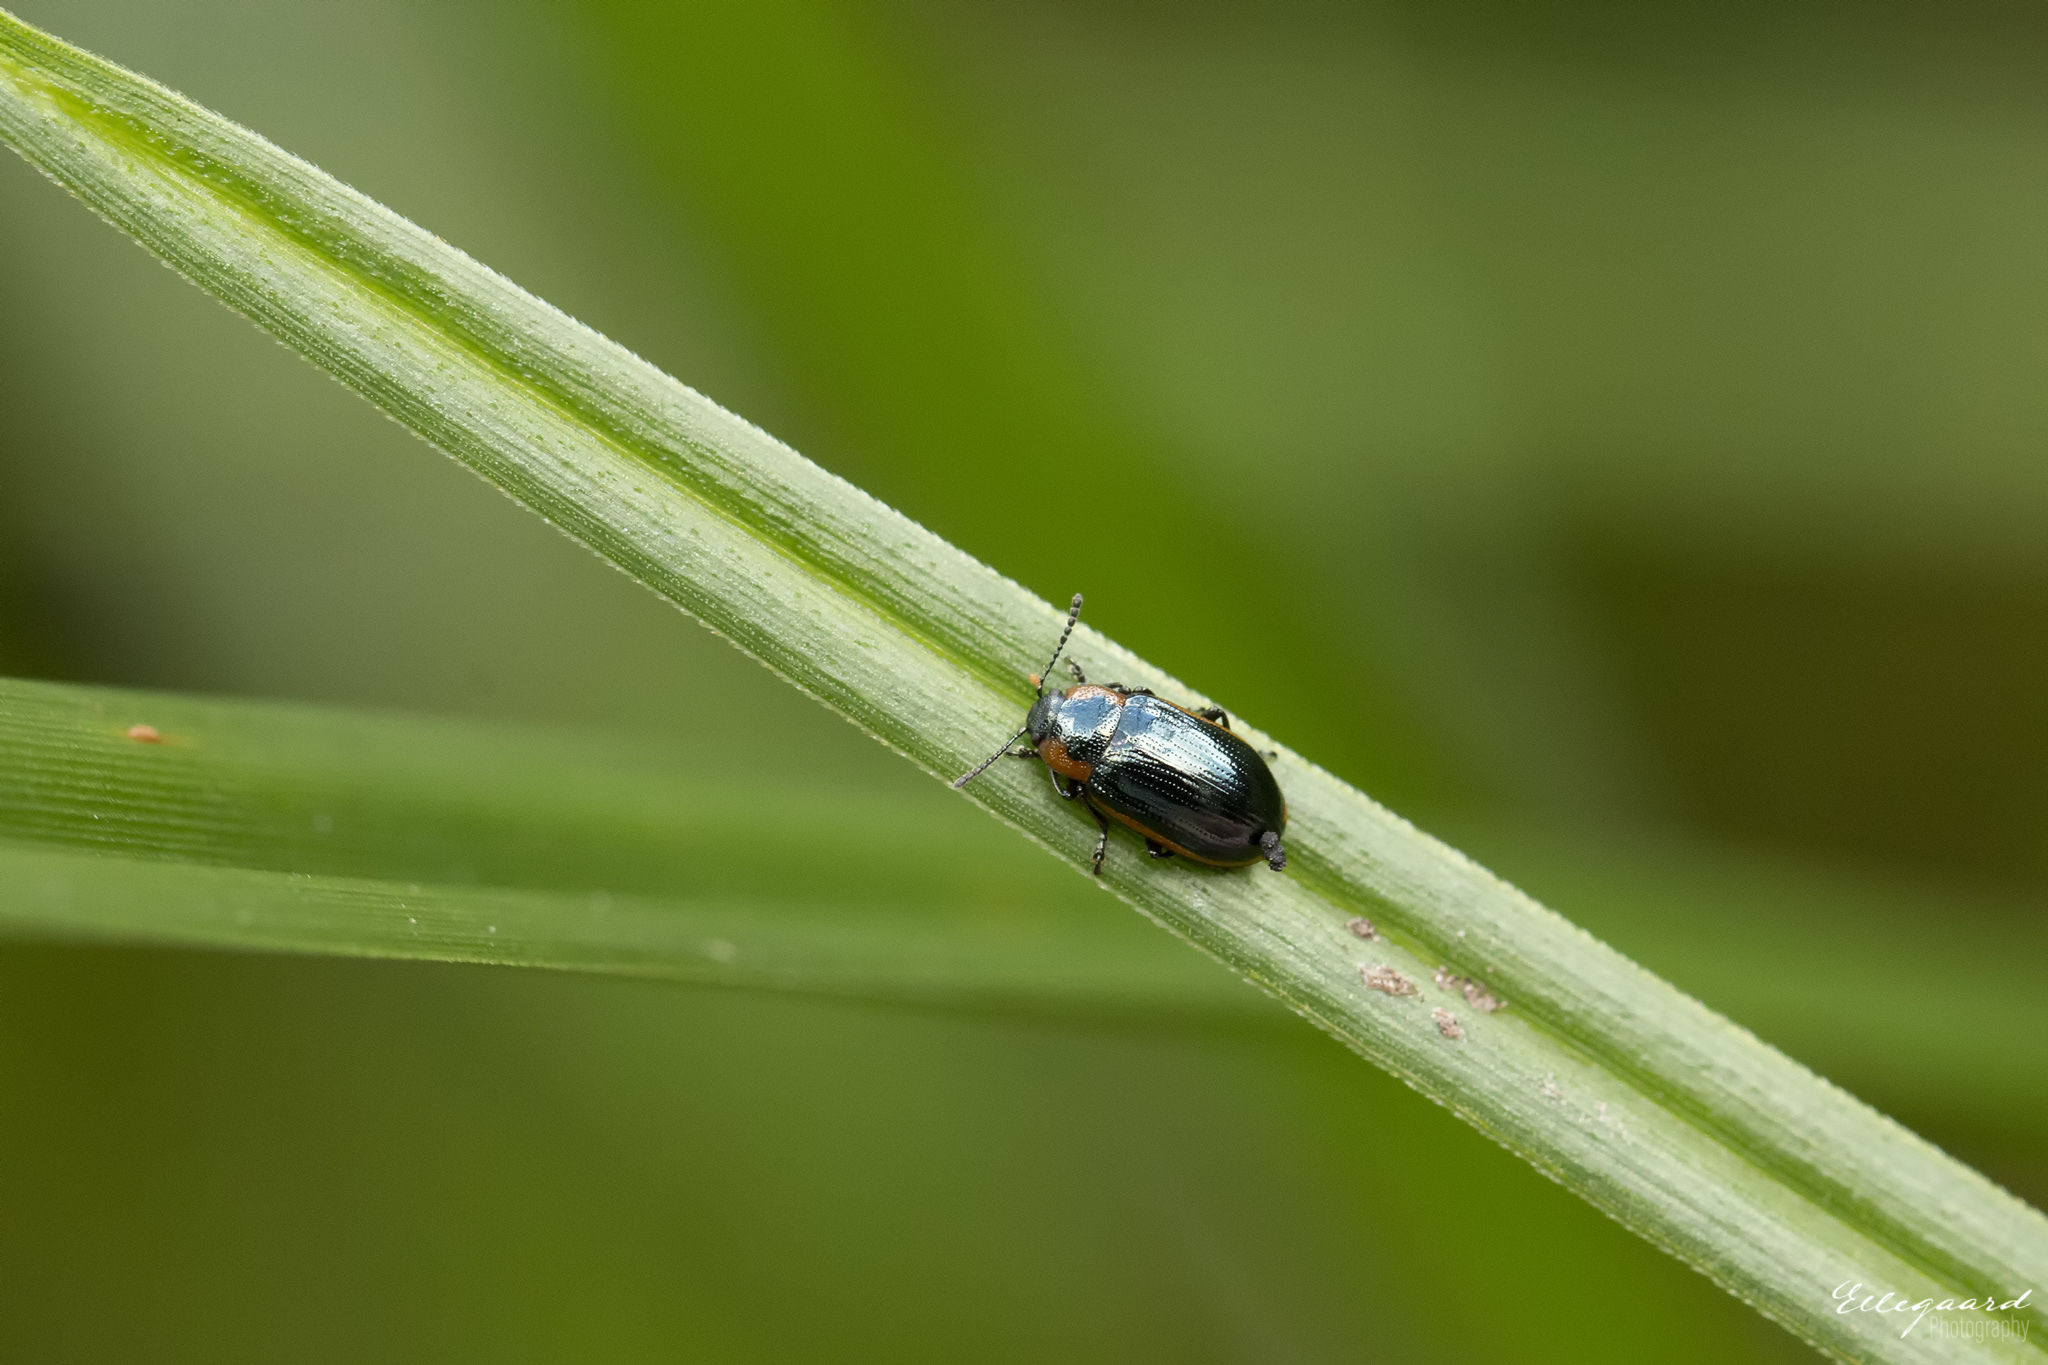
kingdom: Animalia
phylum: Arthropoda
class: Insecta
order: Coleoptera
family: Chrysomelidae
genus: Prasocuris
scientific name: Prasocuris marginella
